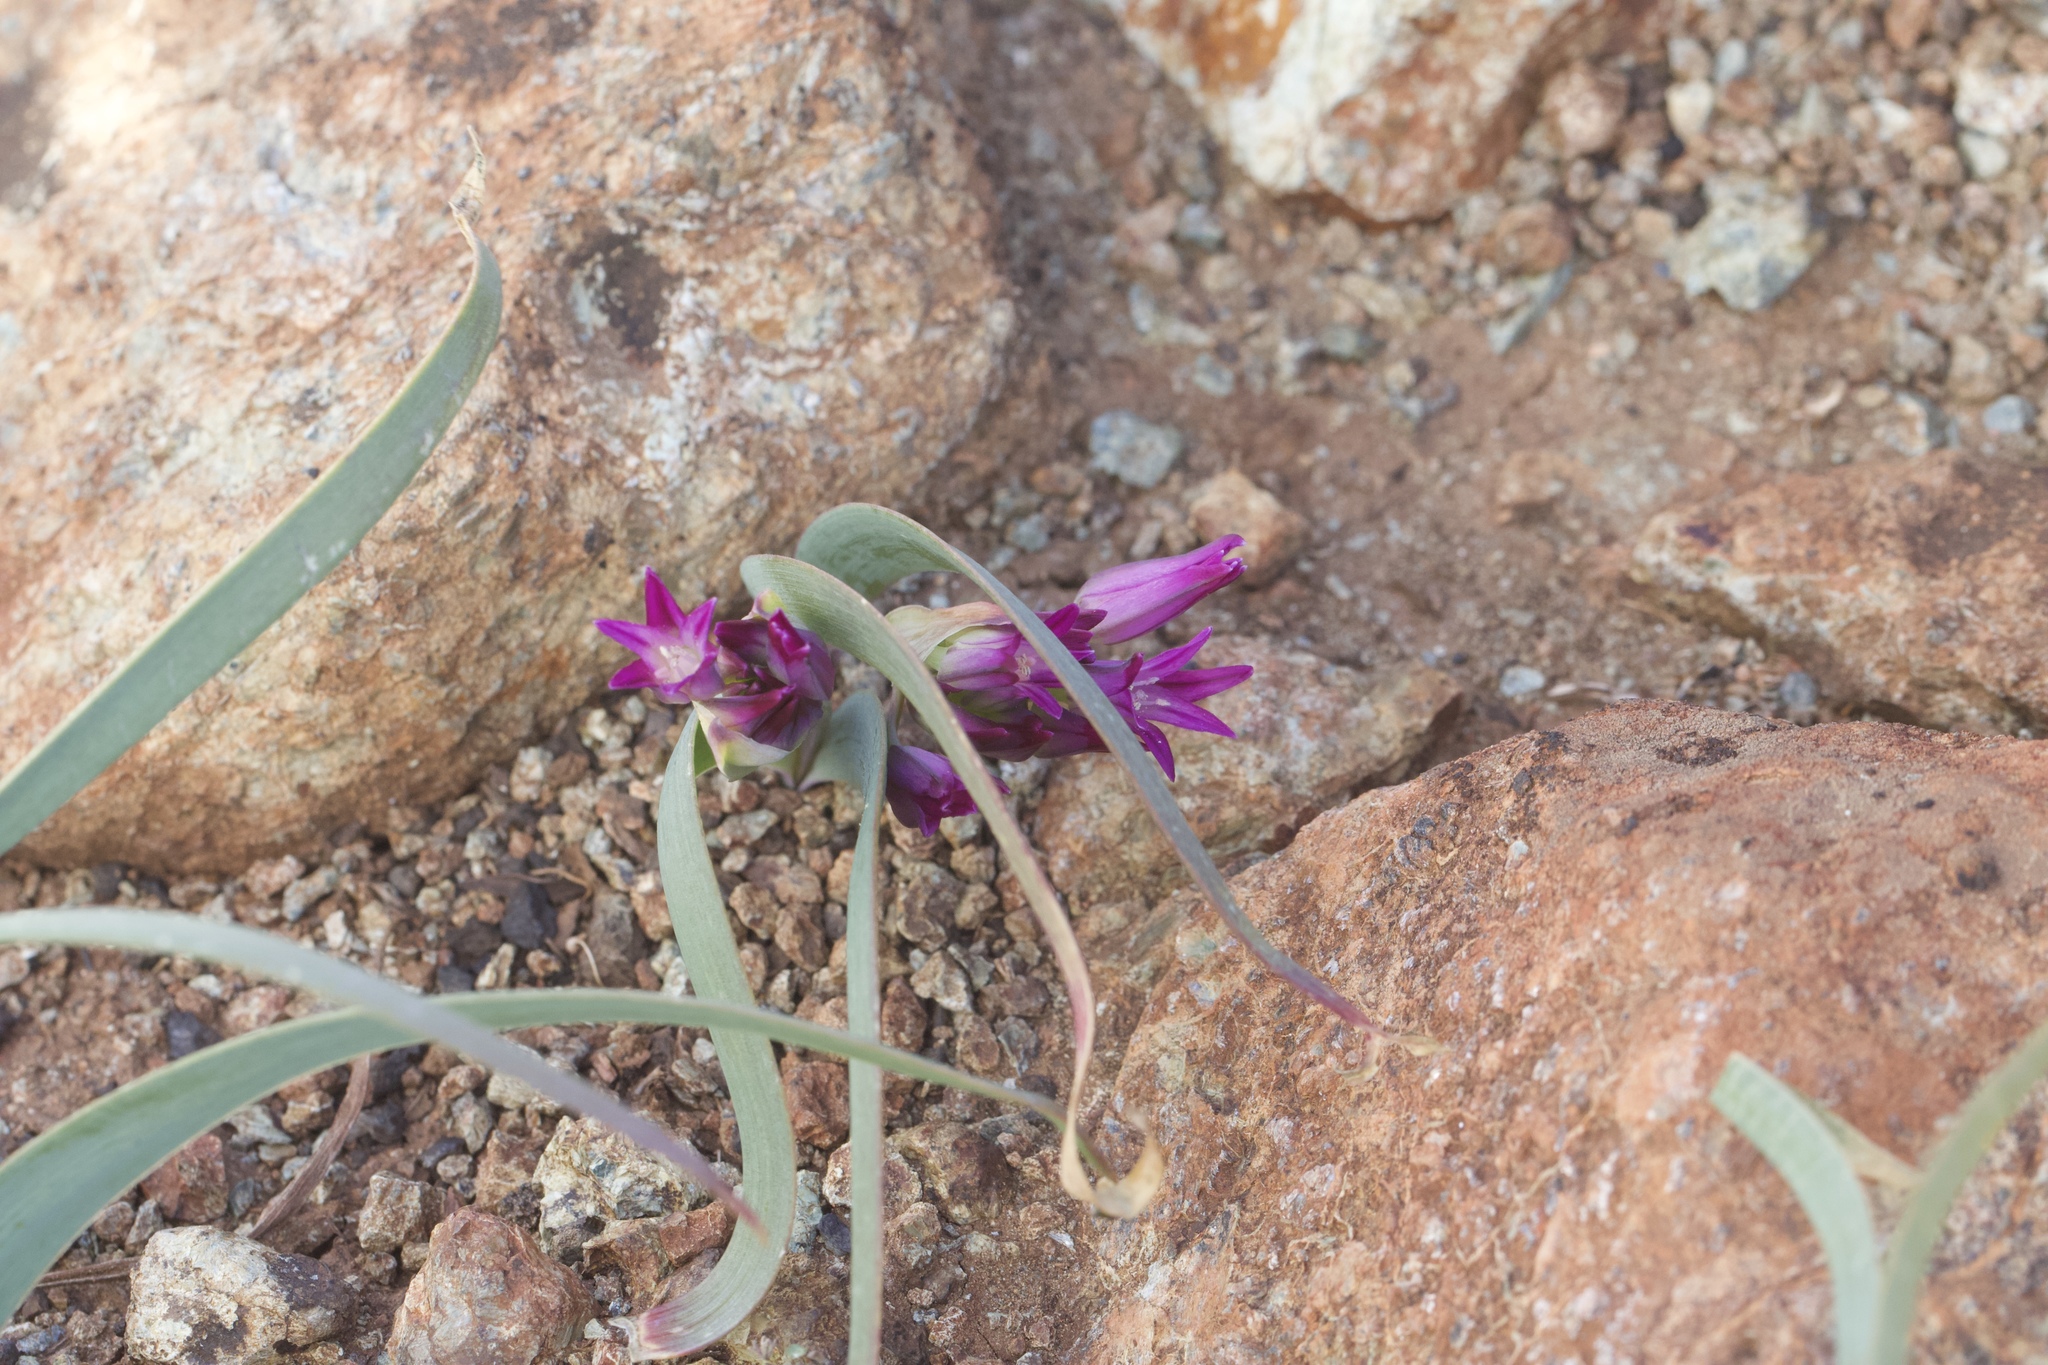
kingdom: Plantae
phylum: Tracheophyta
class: Liliopsida
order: Asparagales
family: Amaryllidaceae
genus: Allium
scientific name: Allium falcifolium
